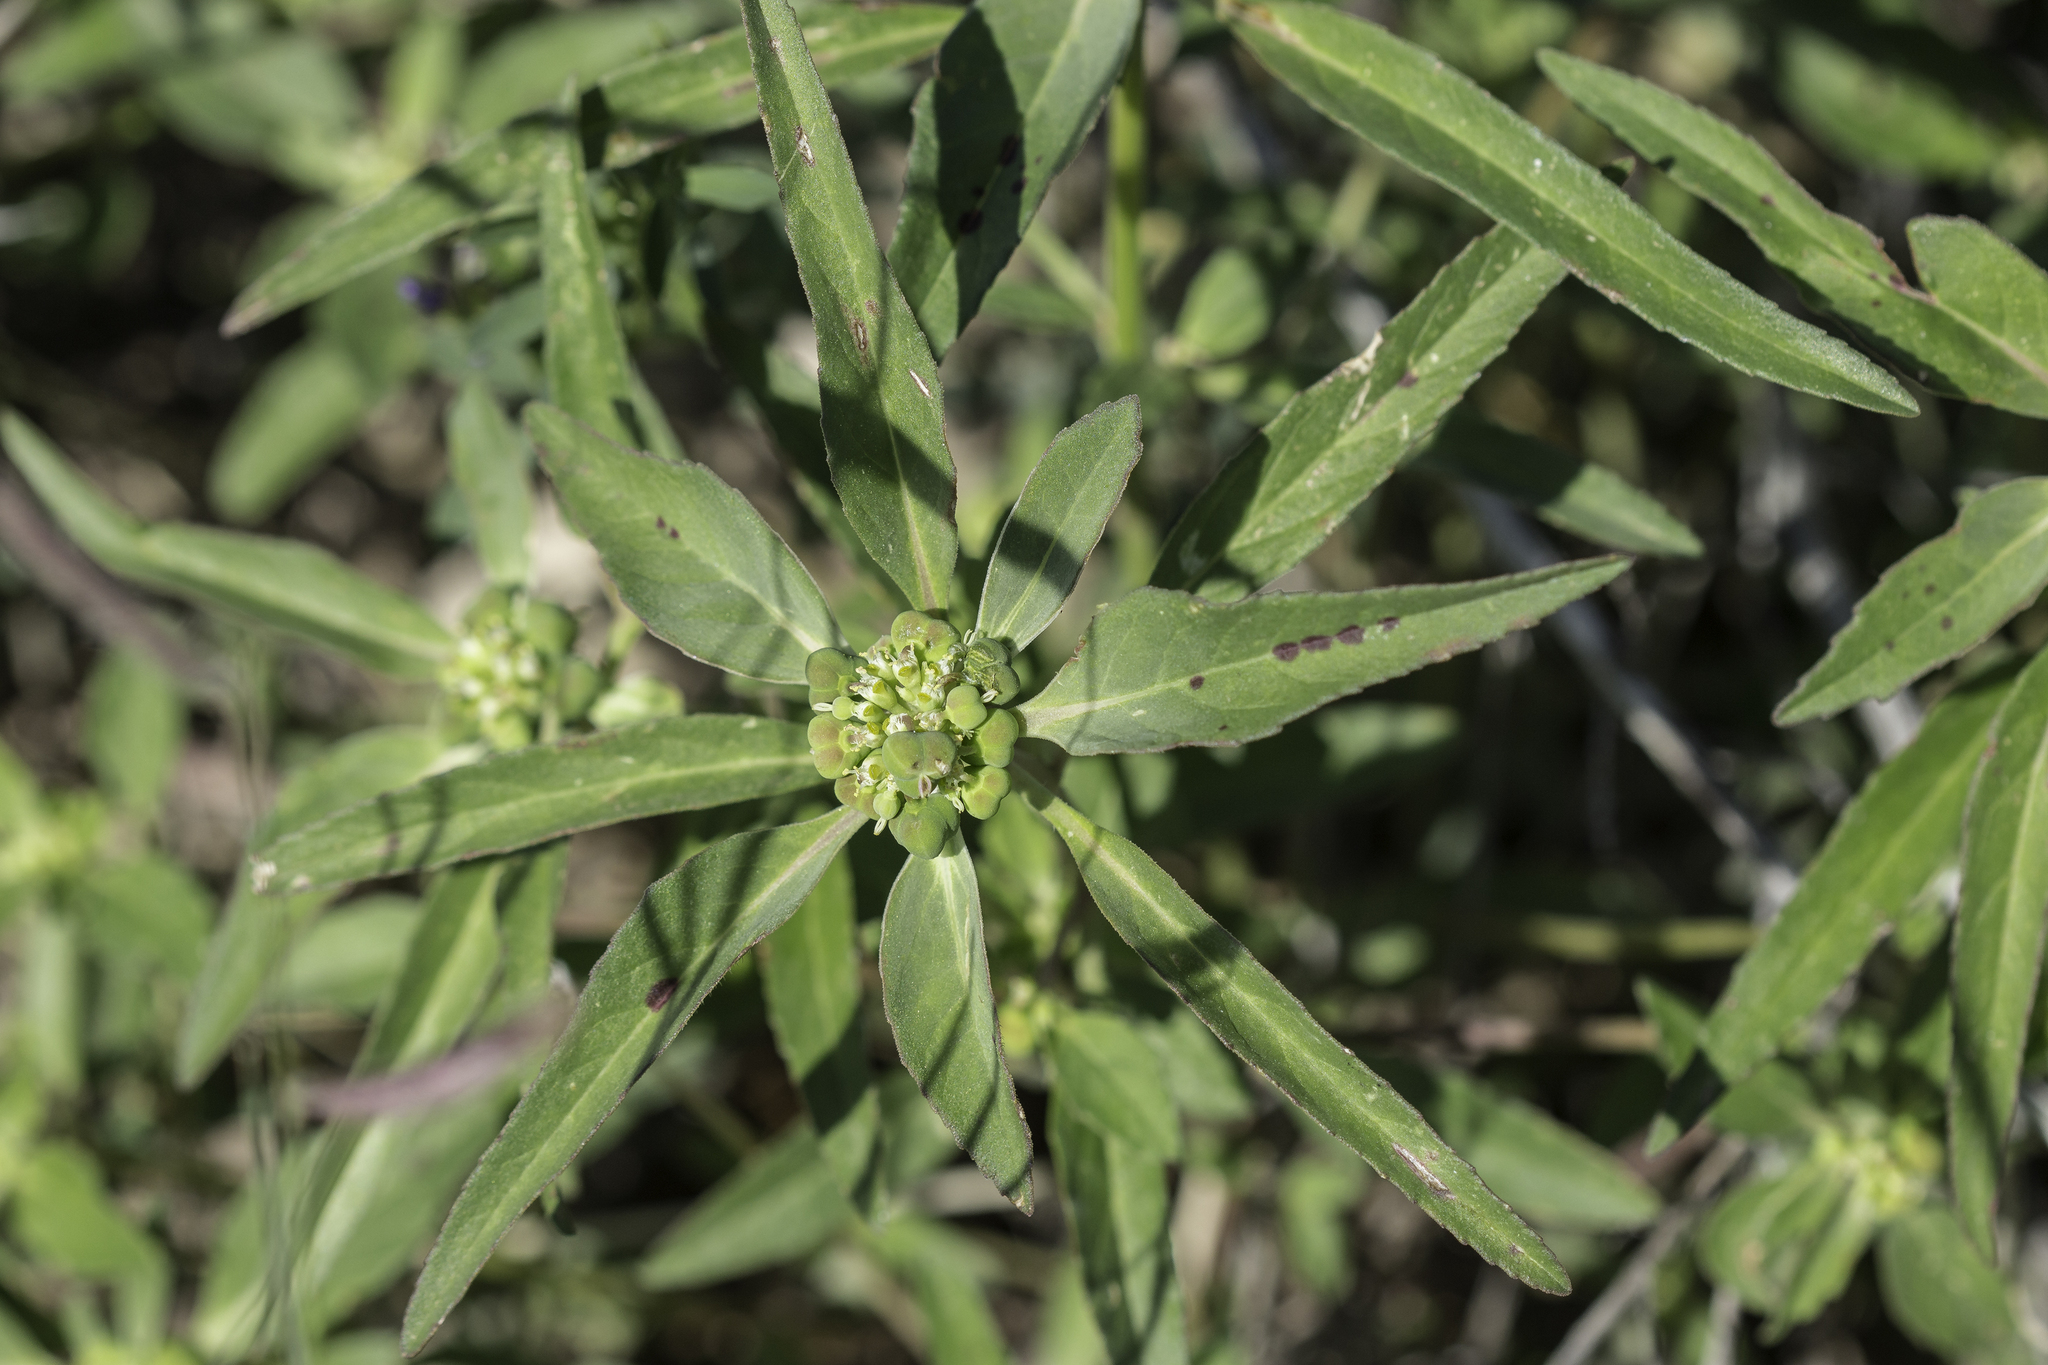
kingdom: Plantae
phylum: Tracheophyta
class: Magnoliopsida
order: Malpighiales
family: Euphorbiaceae
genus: Euphorbia
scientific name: Euphorbia davidii
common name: David's spurge
